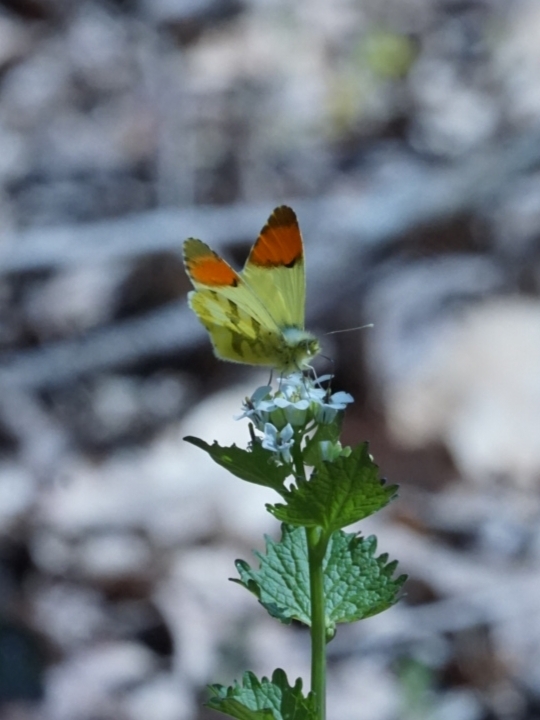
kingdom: Animalia
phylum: Arthropoda
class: Insecta
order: Lepidoptera
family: Pieridae
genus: Anthocharis
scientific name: Anthocharis euphenoides
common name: Provence orange-tip
